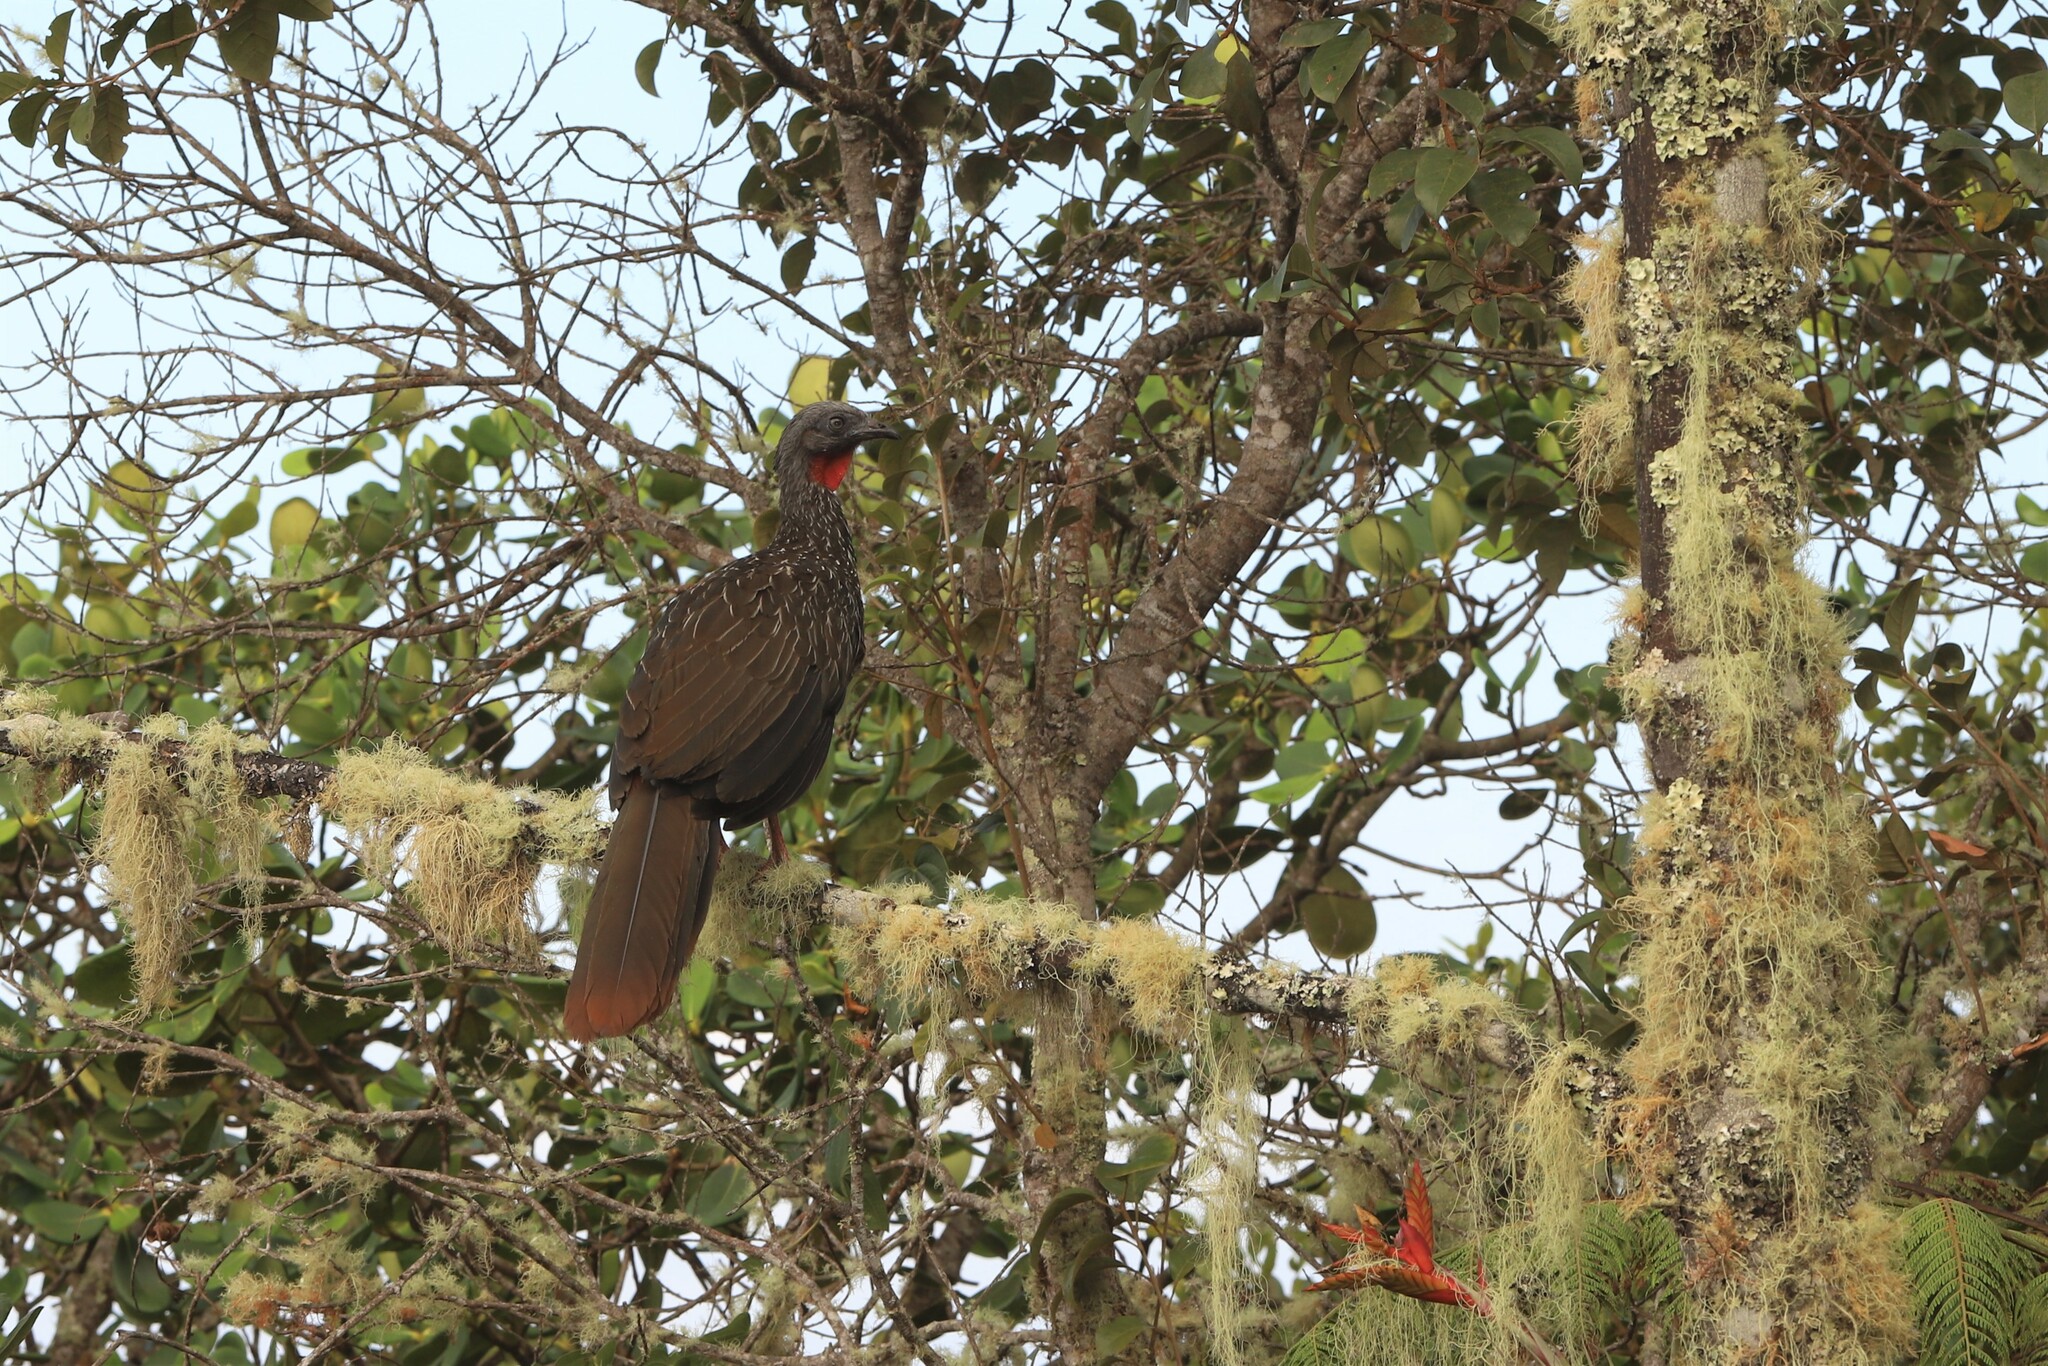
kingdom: Animalia
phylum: Chordata
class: Aves
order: Galliformes
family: Cracidae
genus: Penelope
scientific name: Penelope argyrotis
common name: Band-tailed guan
